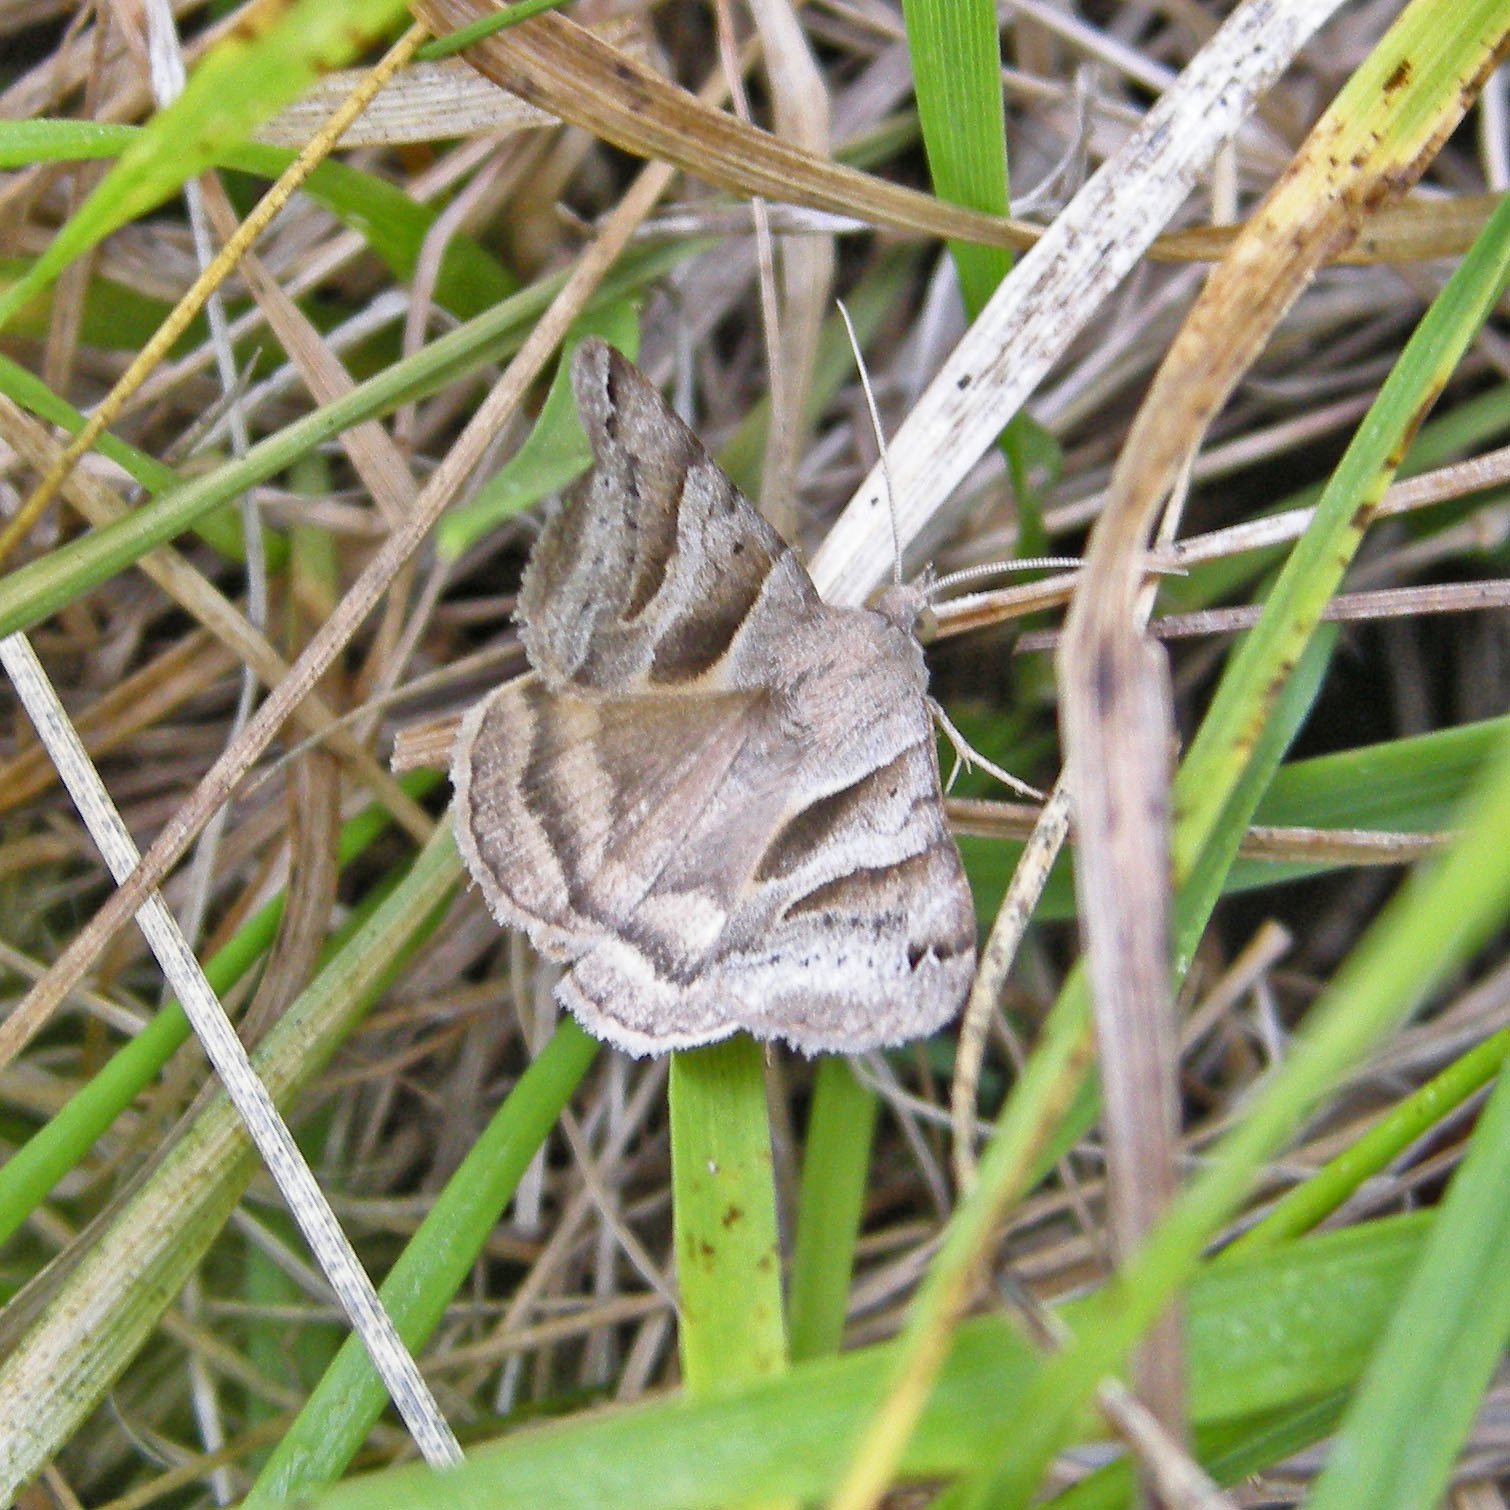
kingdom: Animalia
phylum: Arthropoda
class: Insecta
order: Lepidoptera
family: Erebidae
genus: Caenurgina
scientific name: Caenurgina erechtea
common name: Forage looper moth
